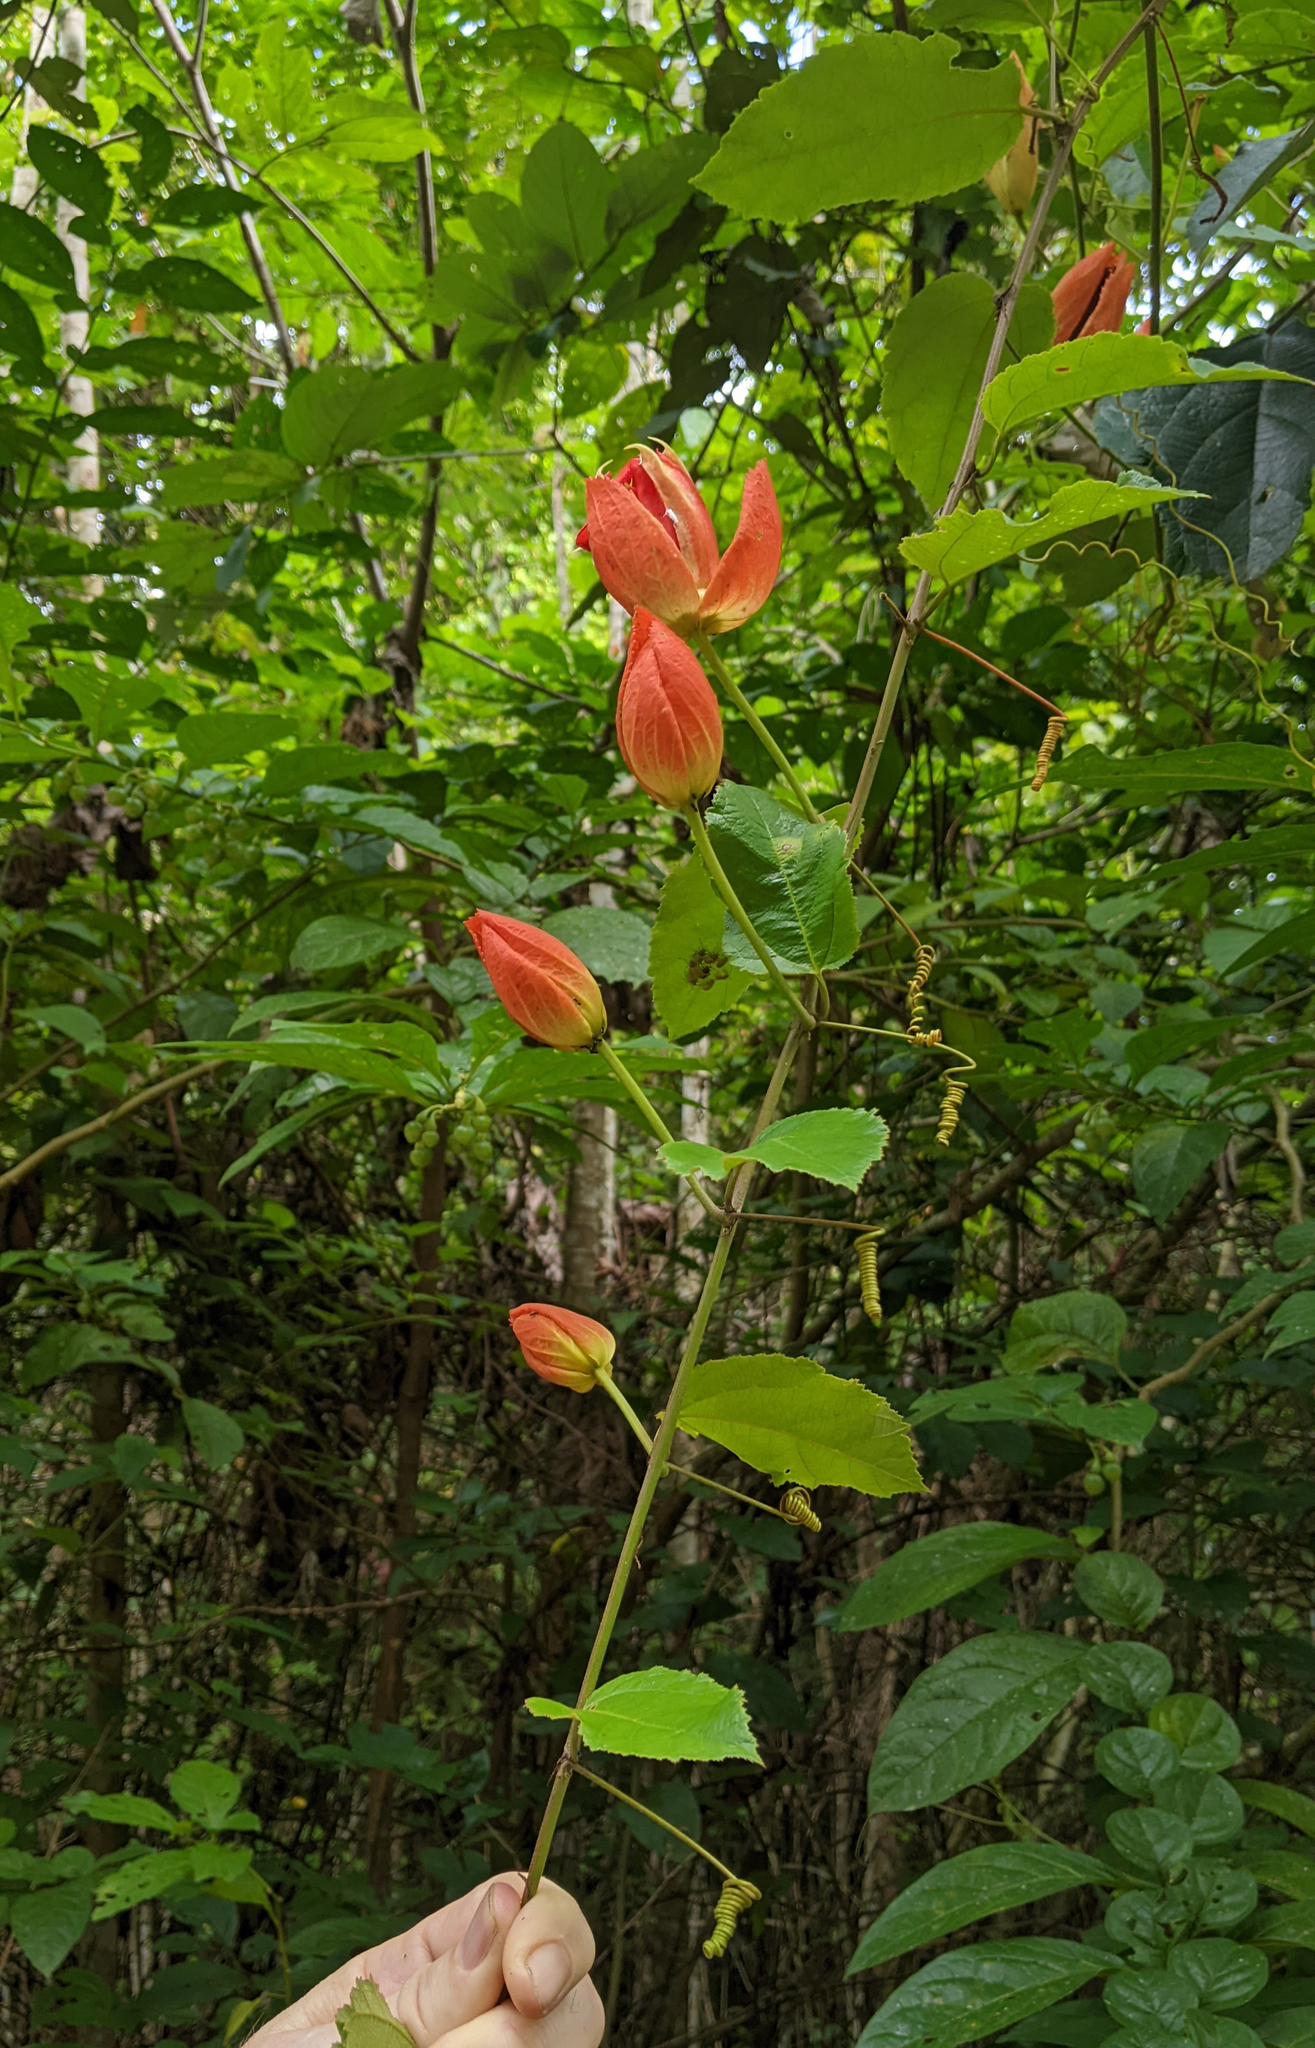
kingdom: Plantae
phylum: Tracheophyta
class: Magnoliopsida
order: Malpighiales
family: Passifloraceae
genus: Passiflora
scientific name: Passiflora coccinea
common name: Scarlet passionflower
